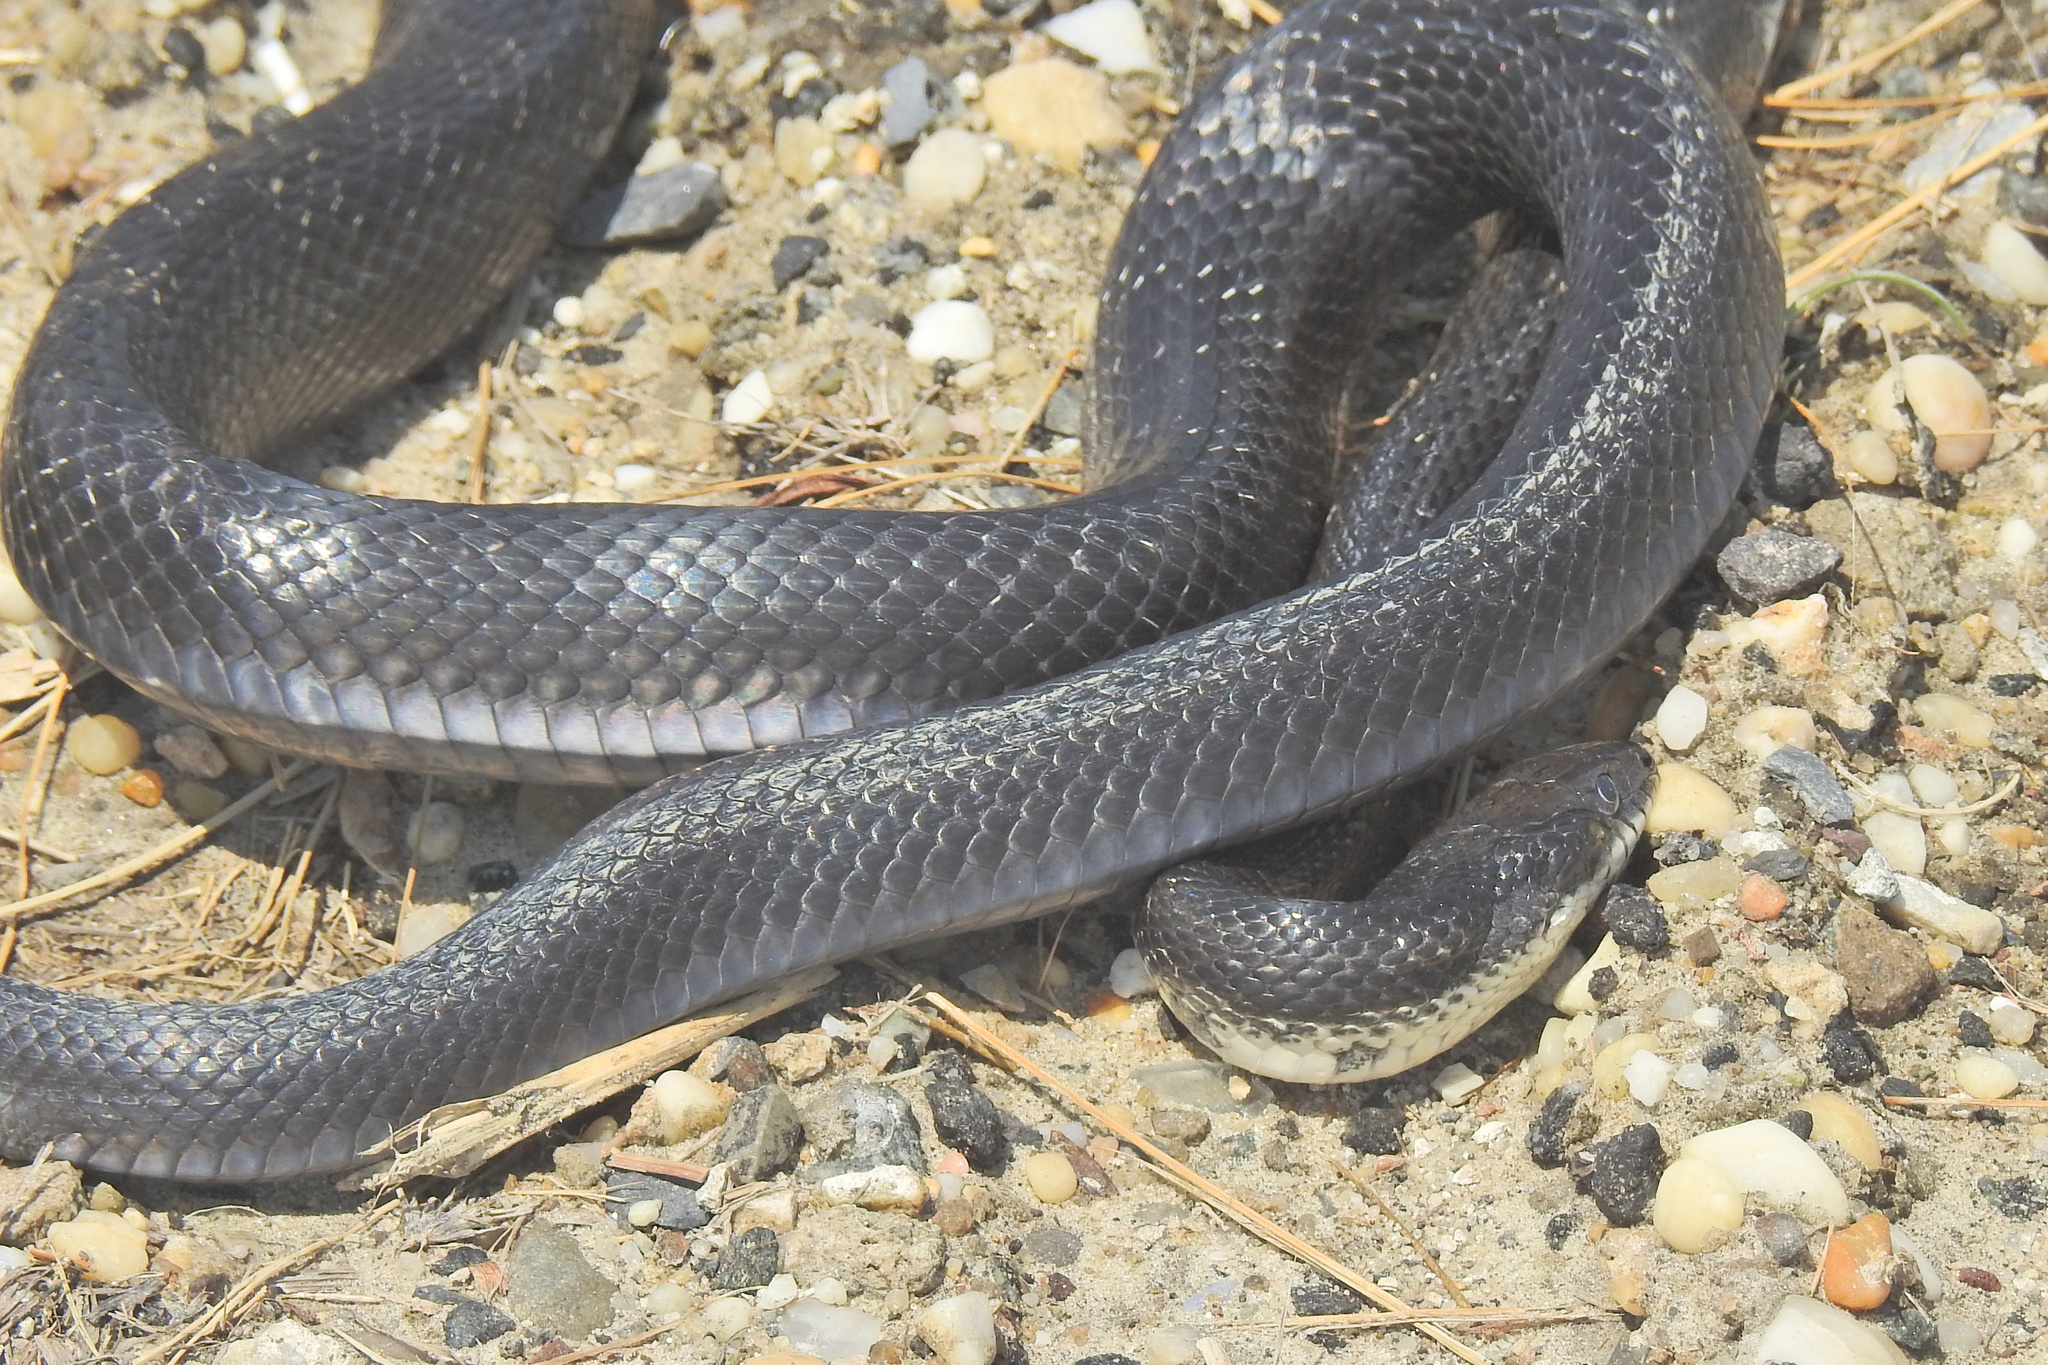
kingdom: Animalia
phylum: Chordata
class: Squamata
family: Colubridae
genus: Pantherophis
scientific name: Pantherophis alleghaniensis
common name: Eastern rat snake
